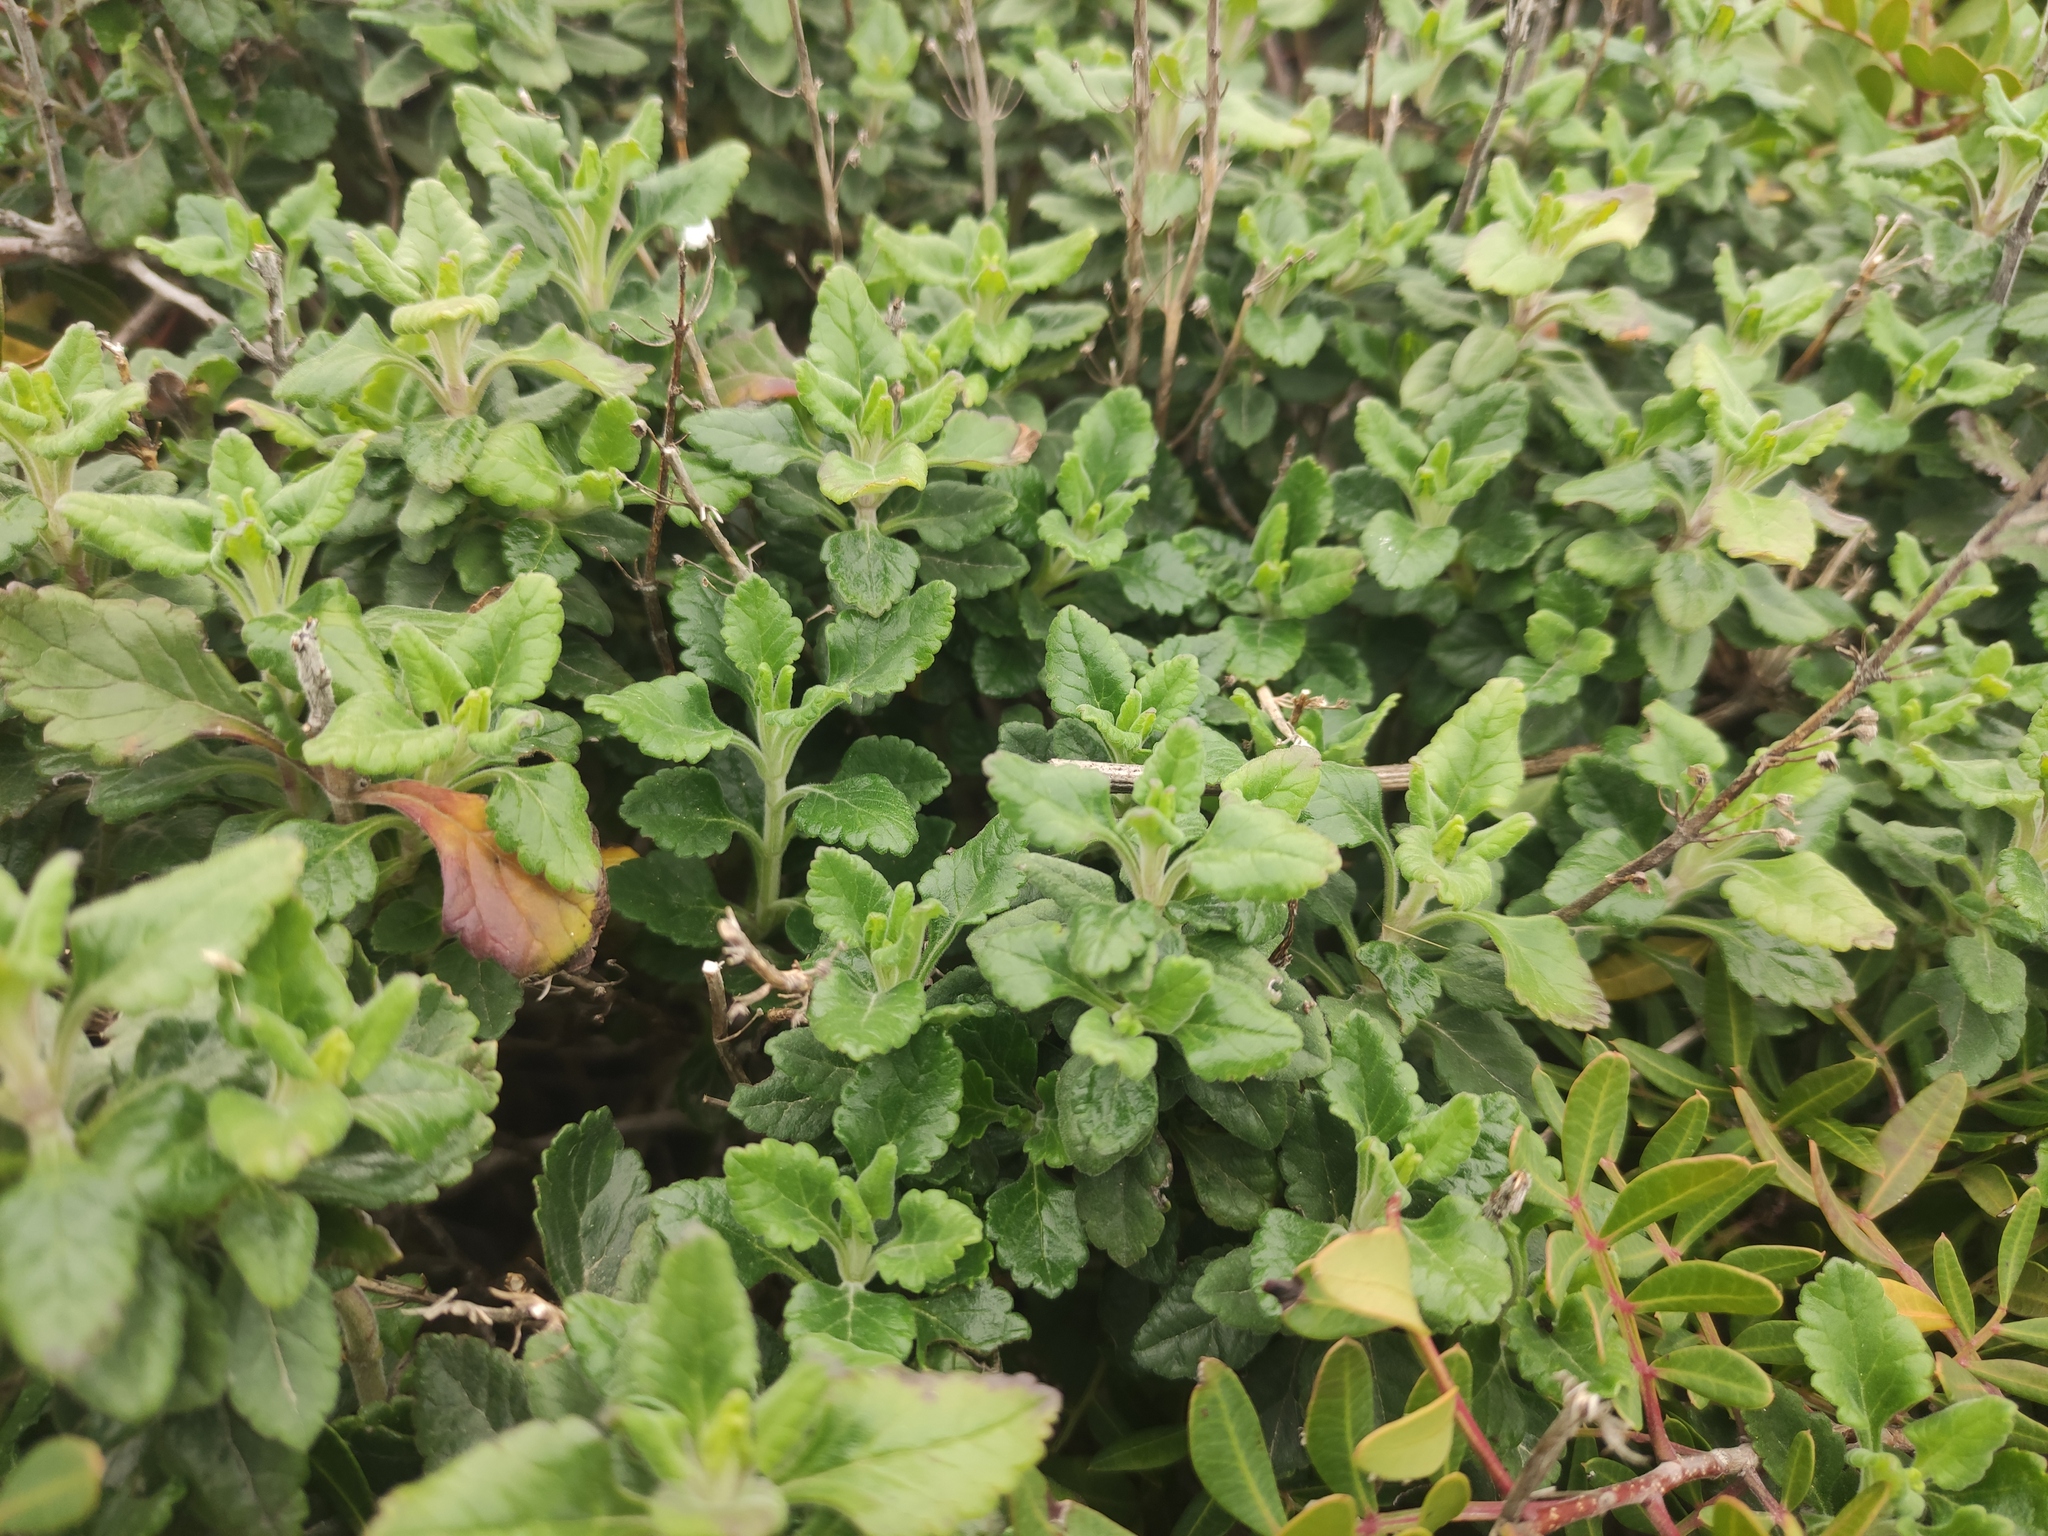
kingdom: Plantae
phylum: Tracheophyta
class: Magnoliopsida
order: Lamiales
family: Lamiaceae
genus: Teucrium
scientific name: Teucrium flavum
